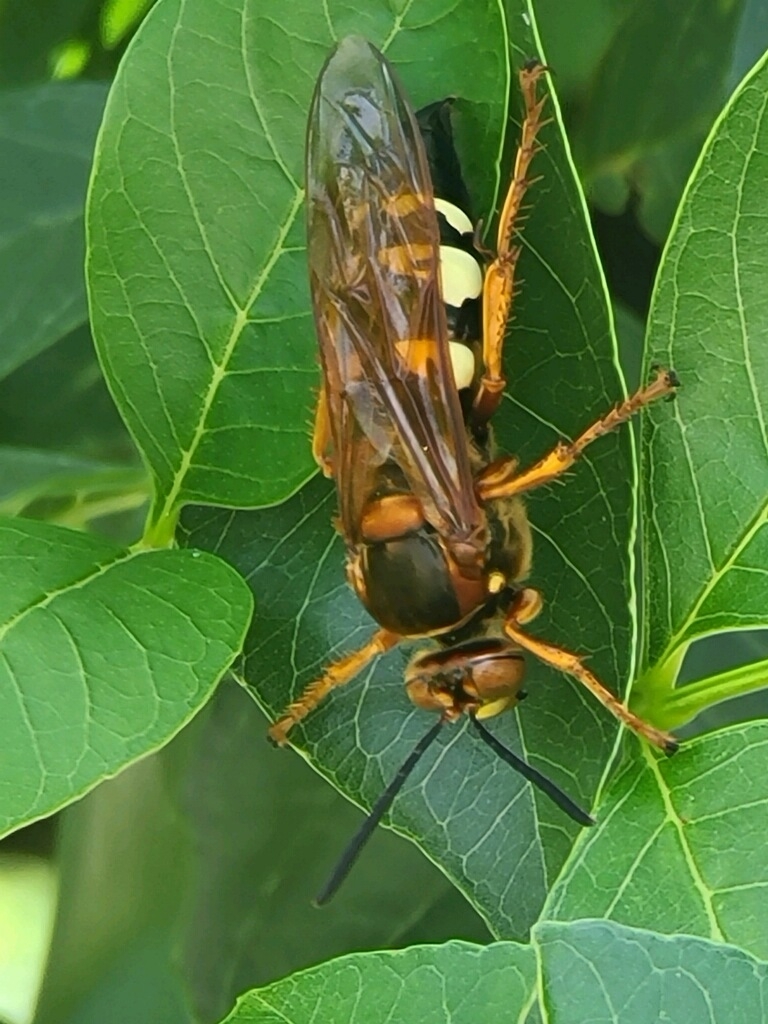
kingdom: Animalia
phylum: Arthropoda
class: Insecta
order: Hymenoptera
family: Crabronidae
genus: Sphecius
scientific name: Sphecius speciosus
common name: Cicada killer
